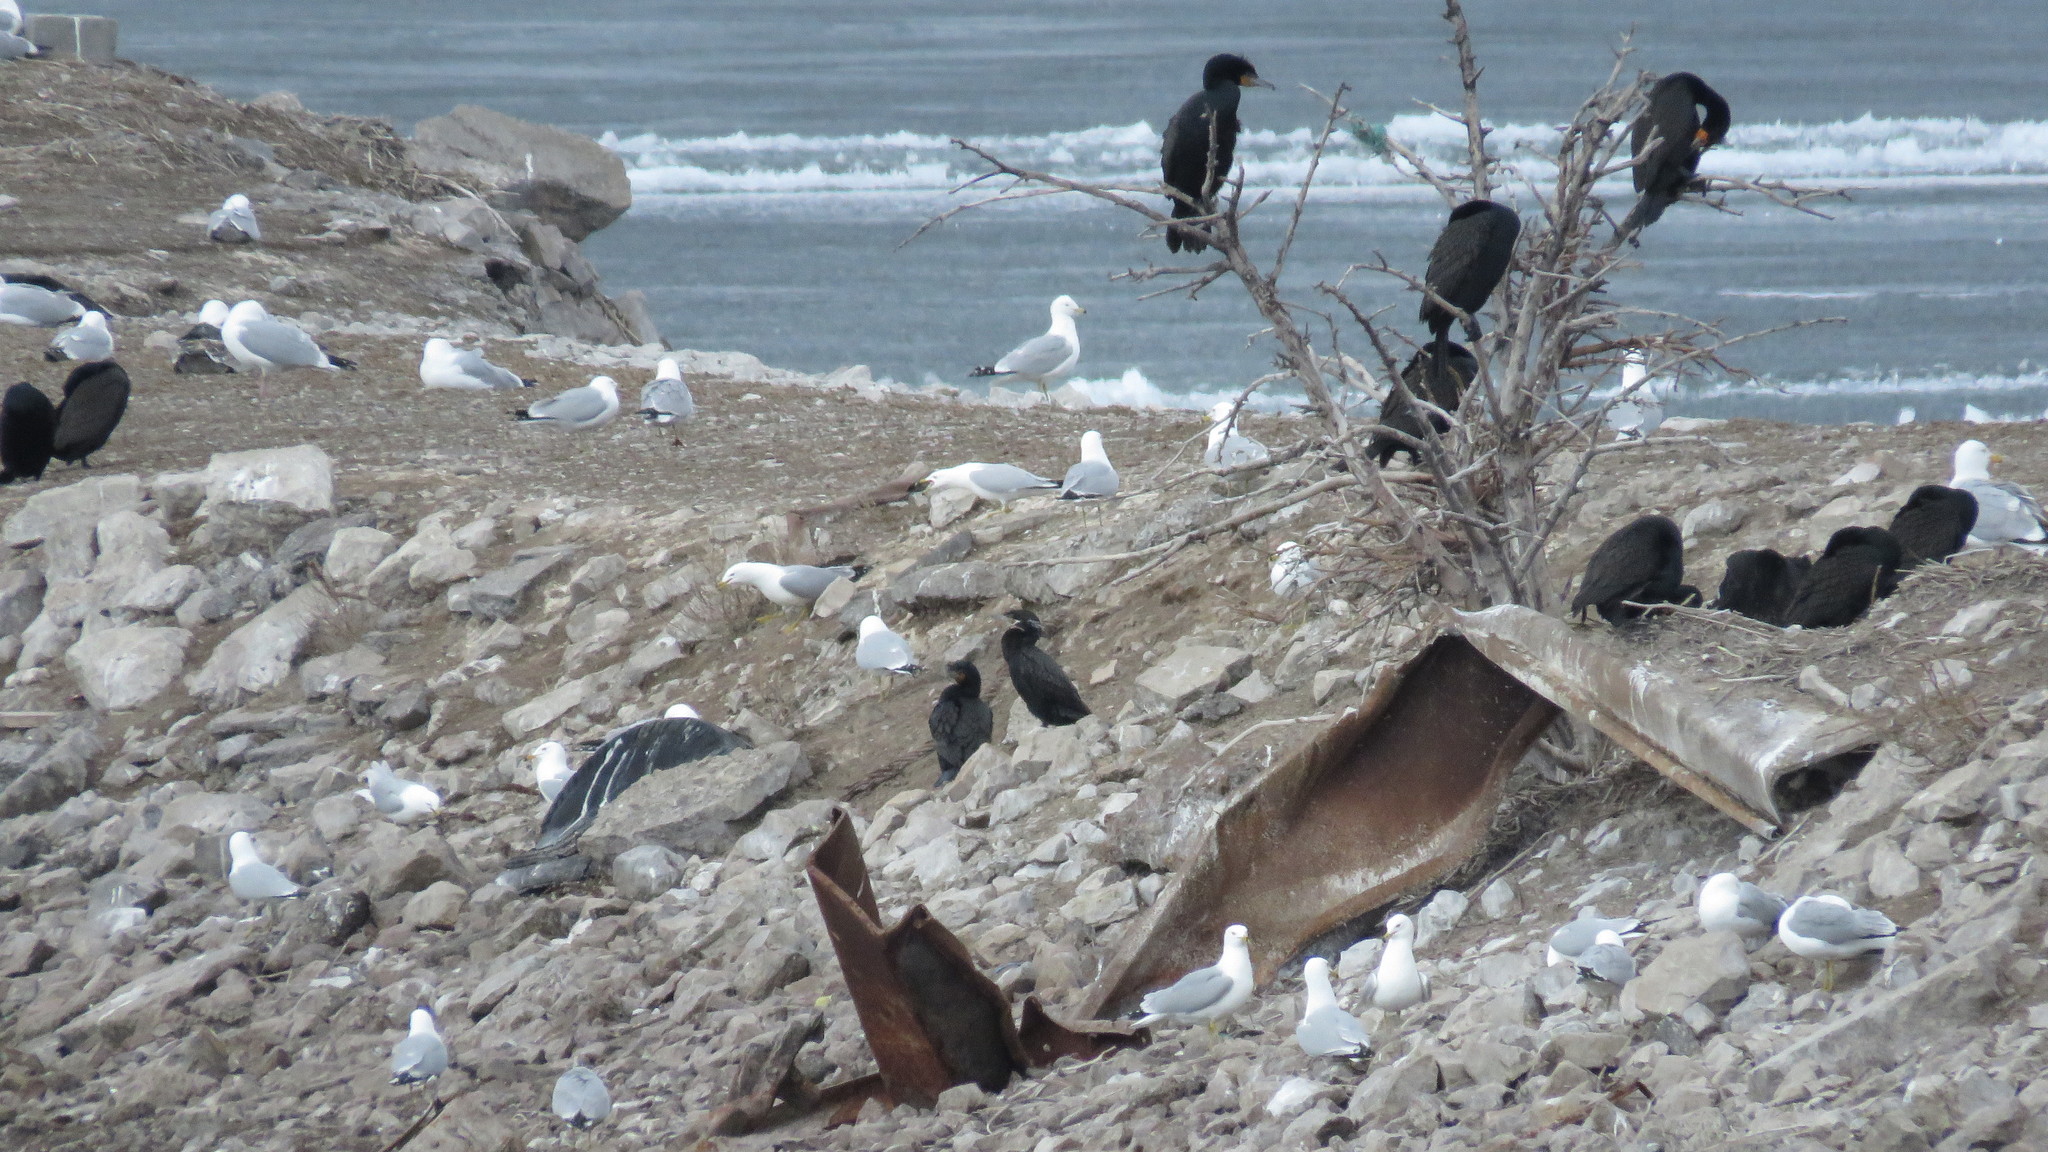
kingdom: Animalia
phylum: Chordata
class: Aves
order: Suliformes
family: Phalacrocoracidae
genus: Phalacrocorax
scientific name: Phalacrocorax brasilianus
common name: Neotropic cormorant
